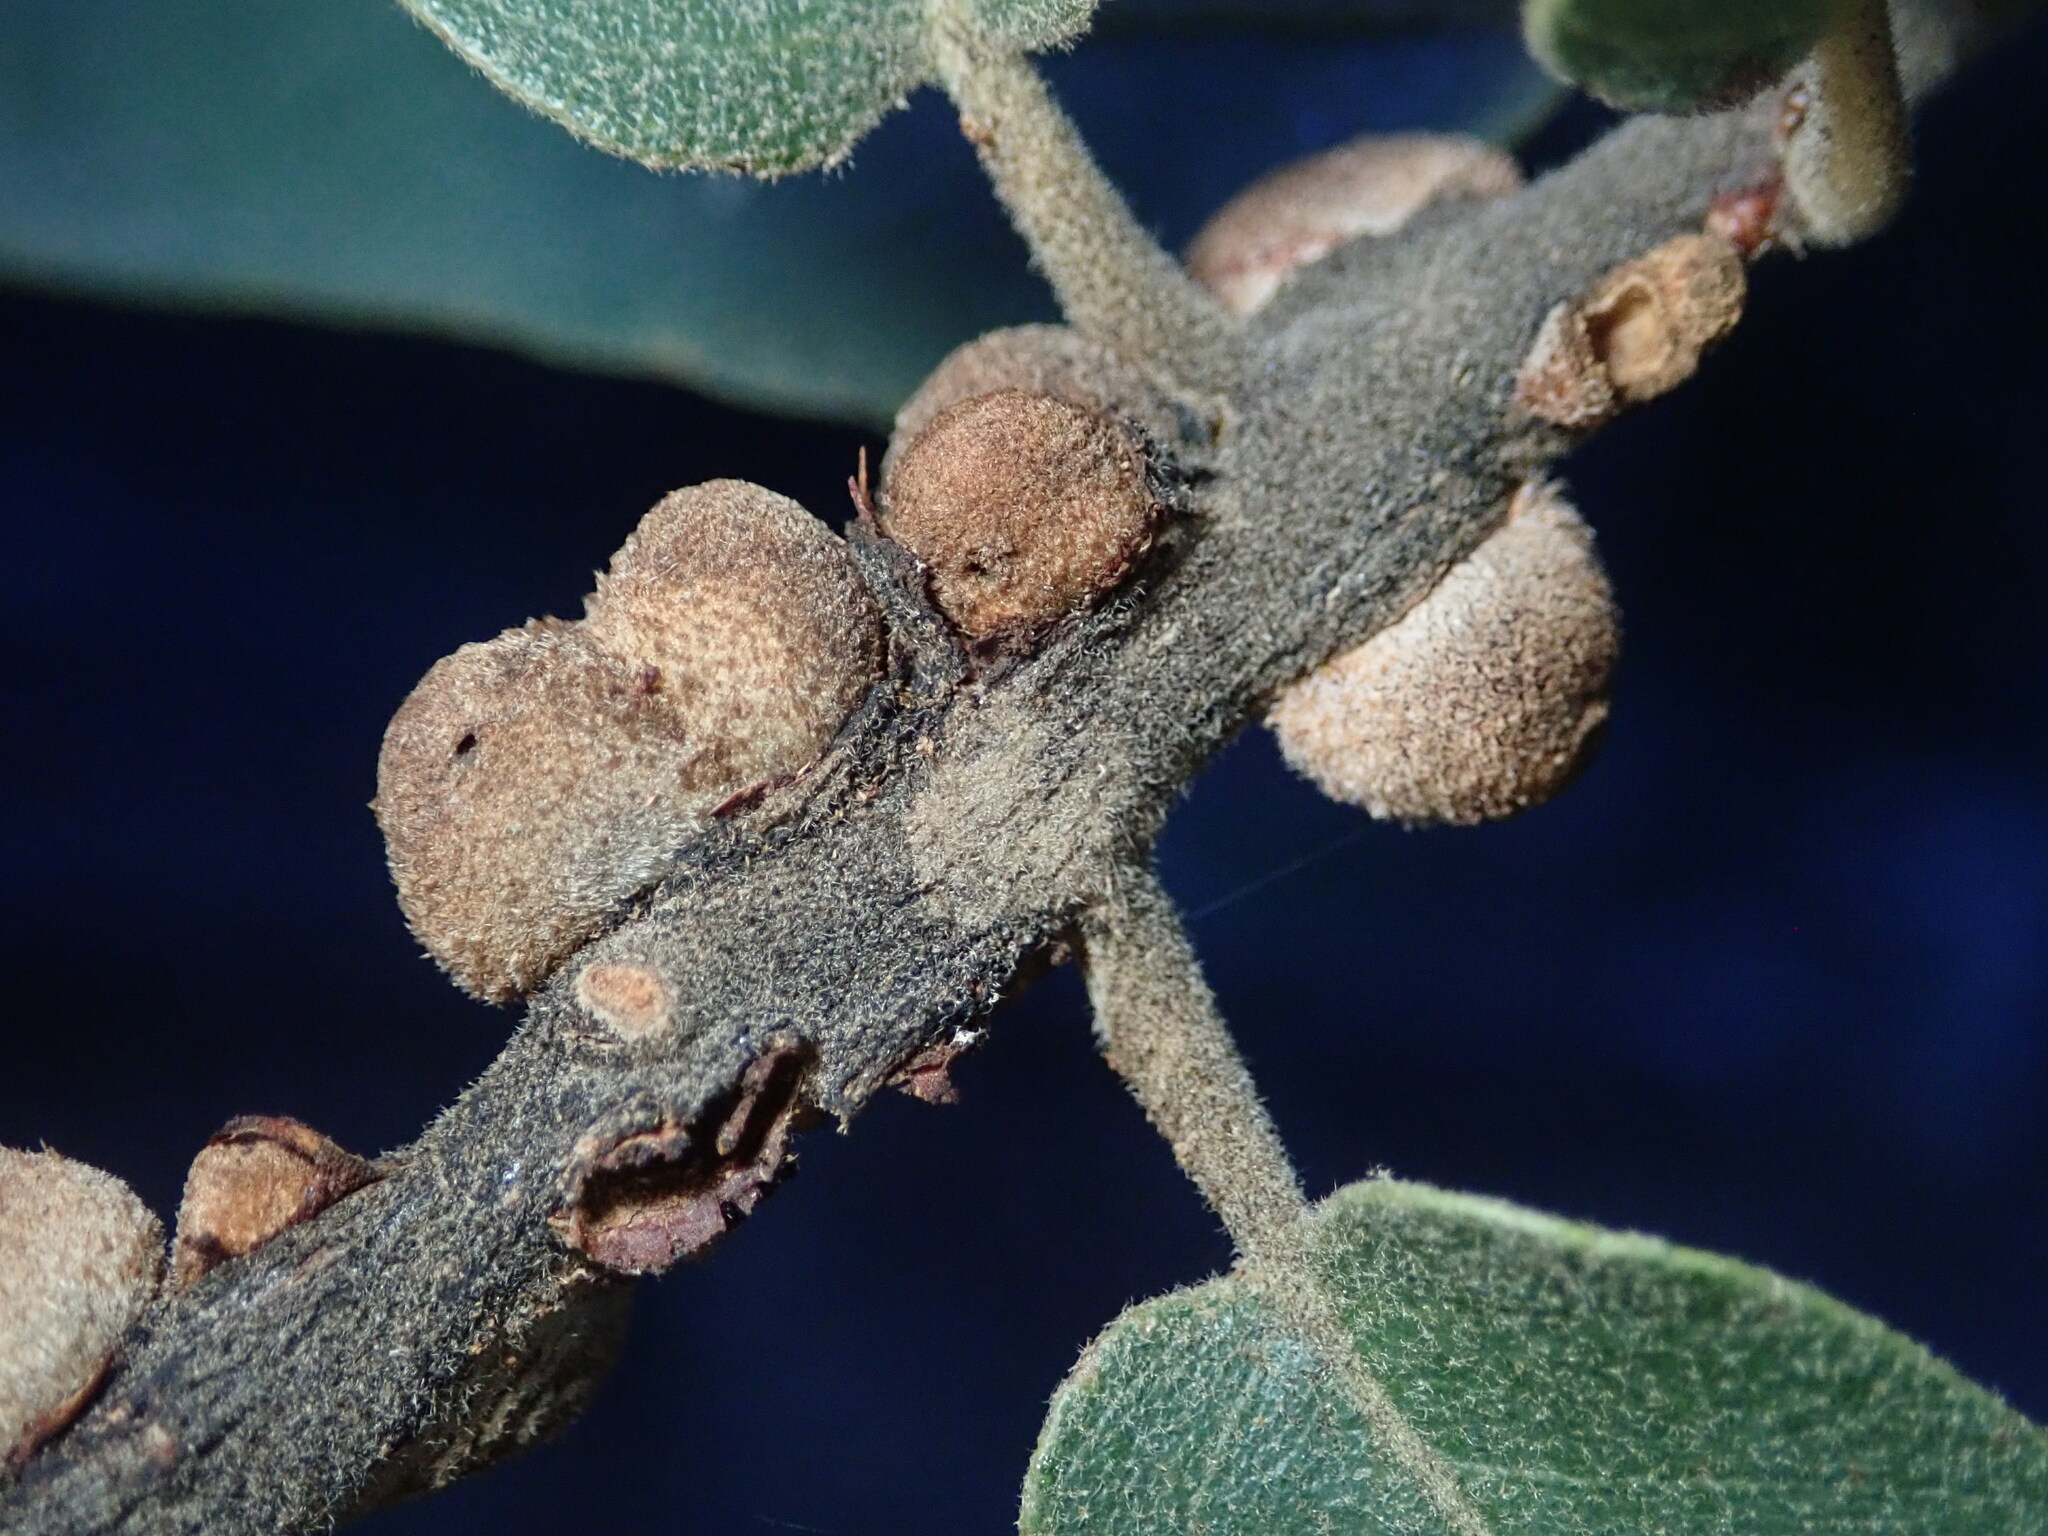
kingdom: Animalia
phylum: Arthropoda
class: Insecta
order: Hymenoptera
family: Cynipidae
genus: Disholcaspis
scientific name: Disholcaspis
